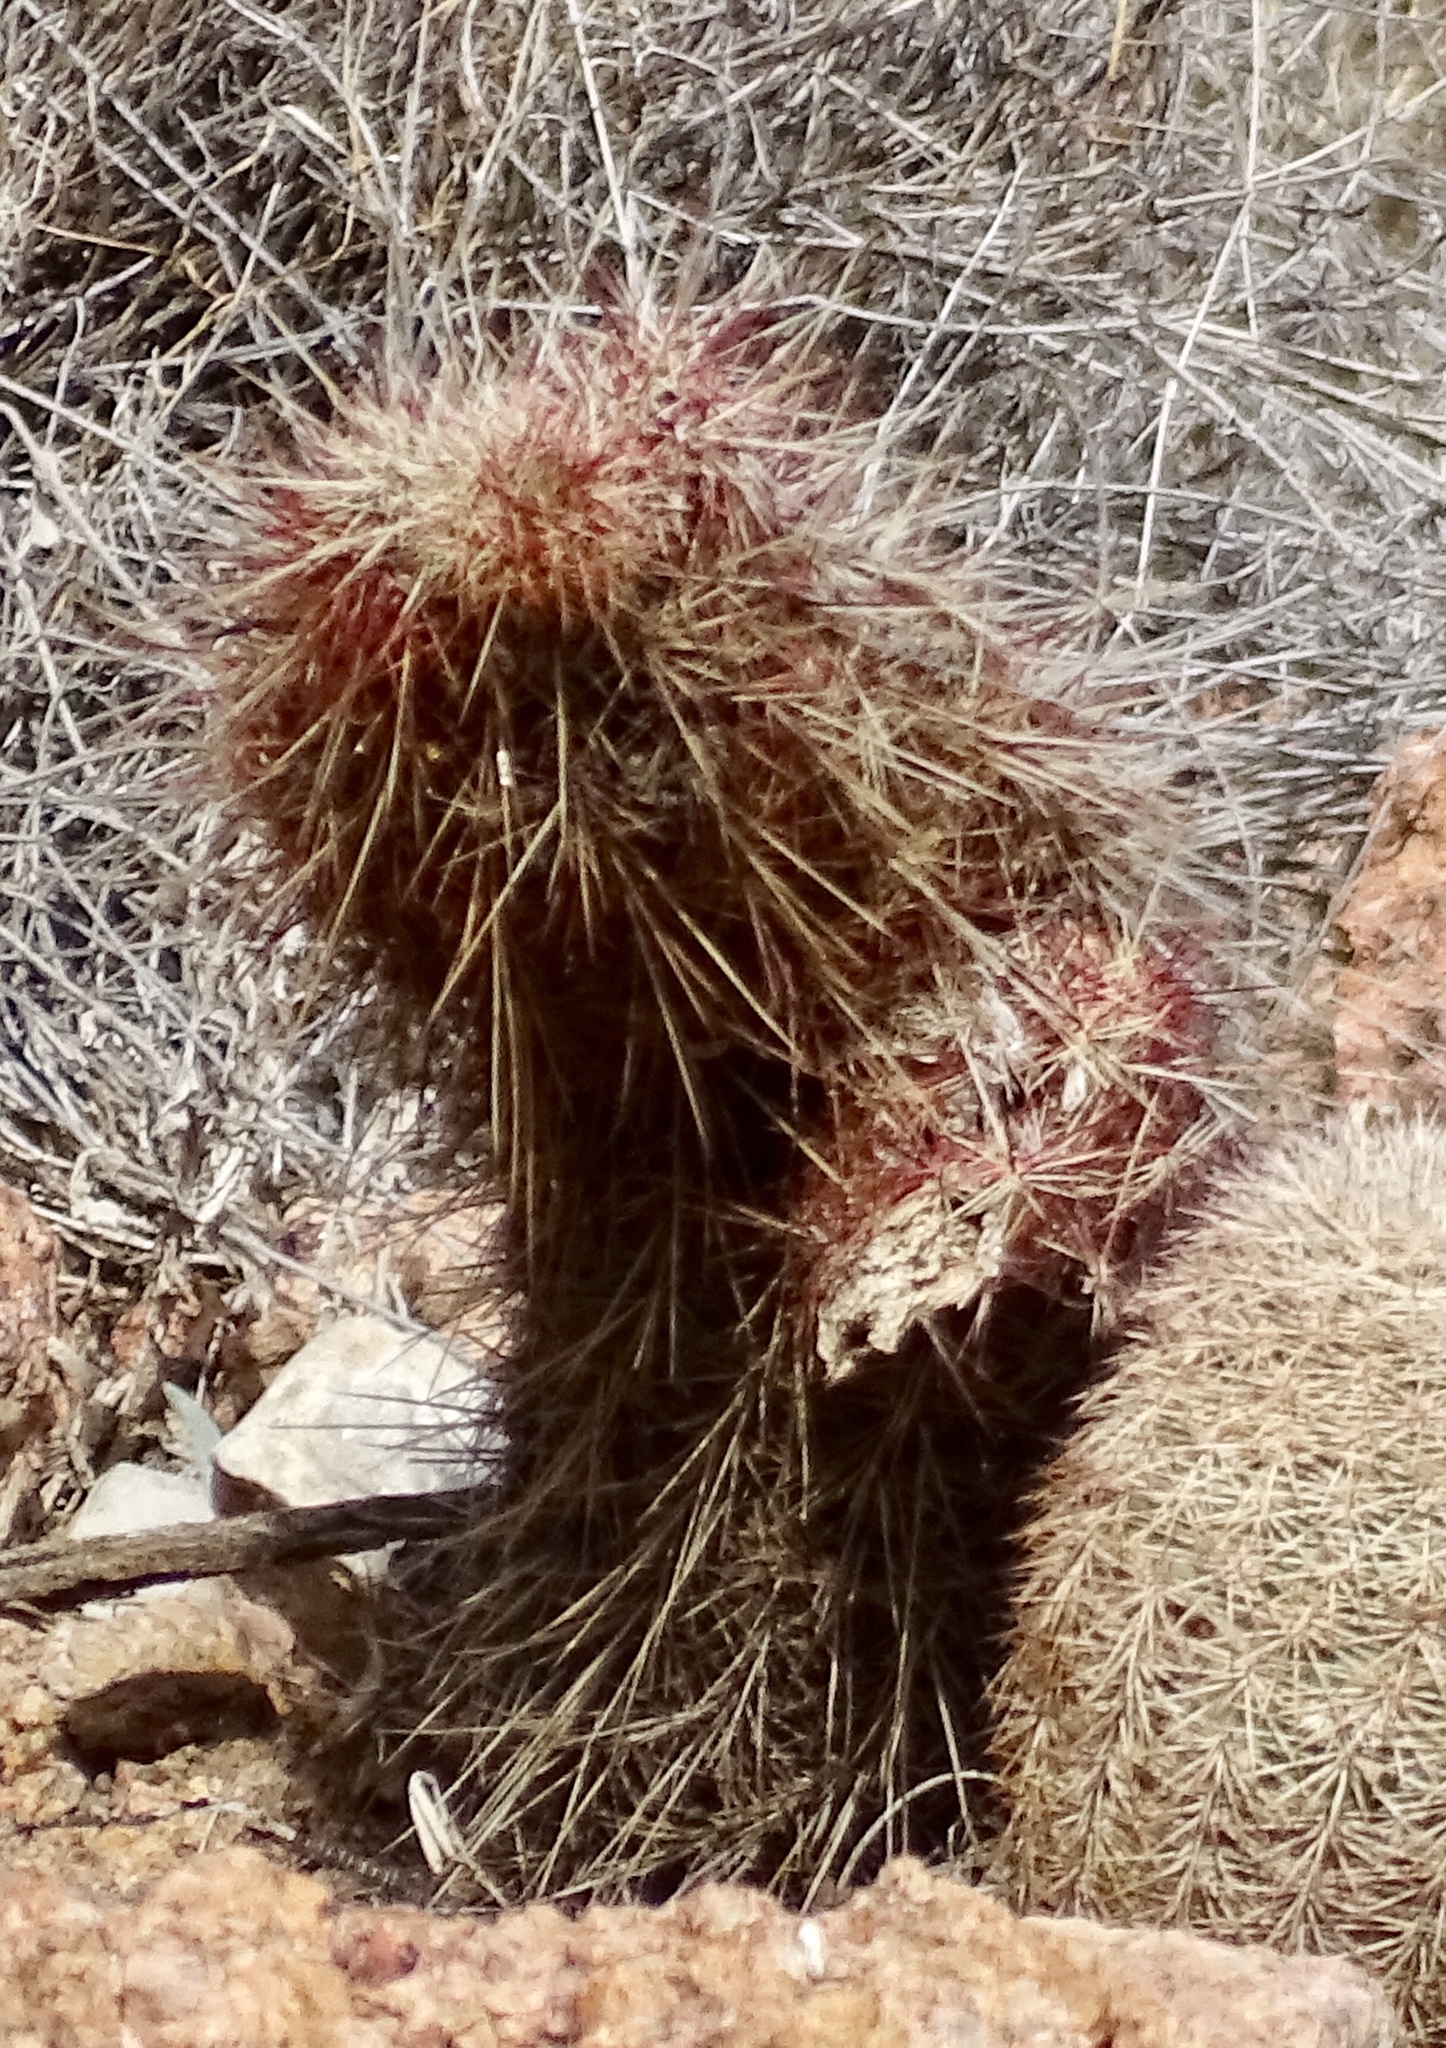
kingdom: Plantae
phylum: Tracheophyta
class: Magnoliopsida
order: Caryophyllales
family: Cactaceae
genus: Echinocereus
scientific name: Echinocereus viridiflorus
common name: Nylon hedgehog cactus
